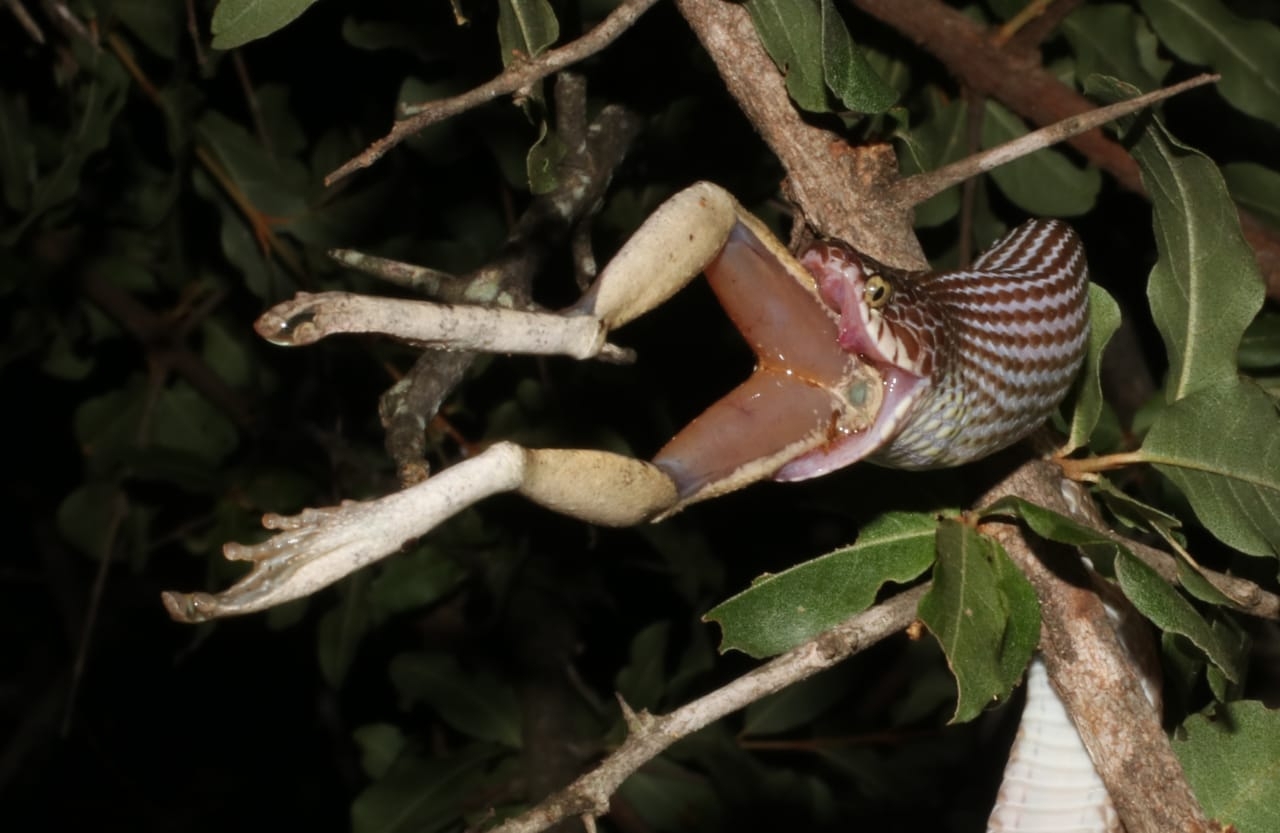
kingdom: Animalia
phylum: Chordata
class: Squamata
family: Colubridae
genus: Dipsadoboa
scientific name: Dipsadoboa aulica
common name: Cross-barred snake
